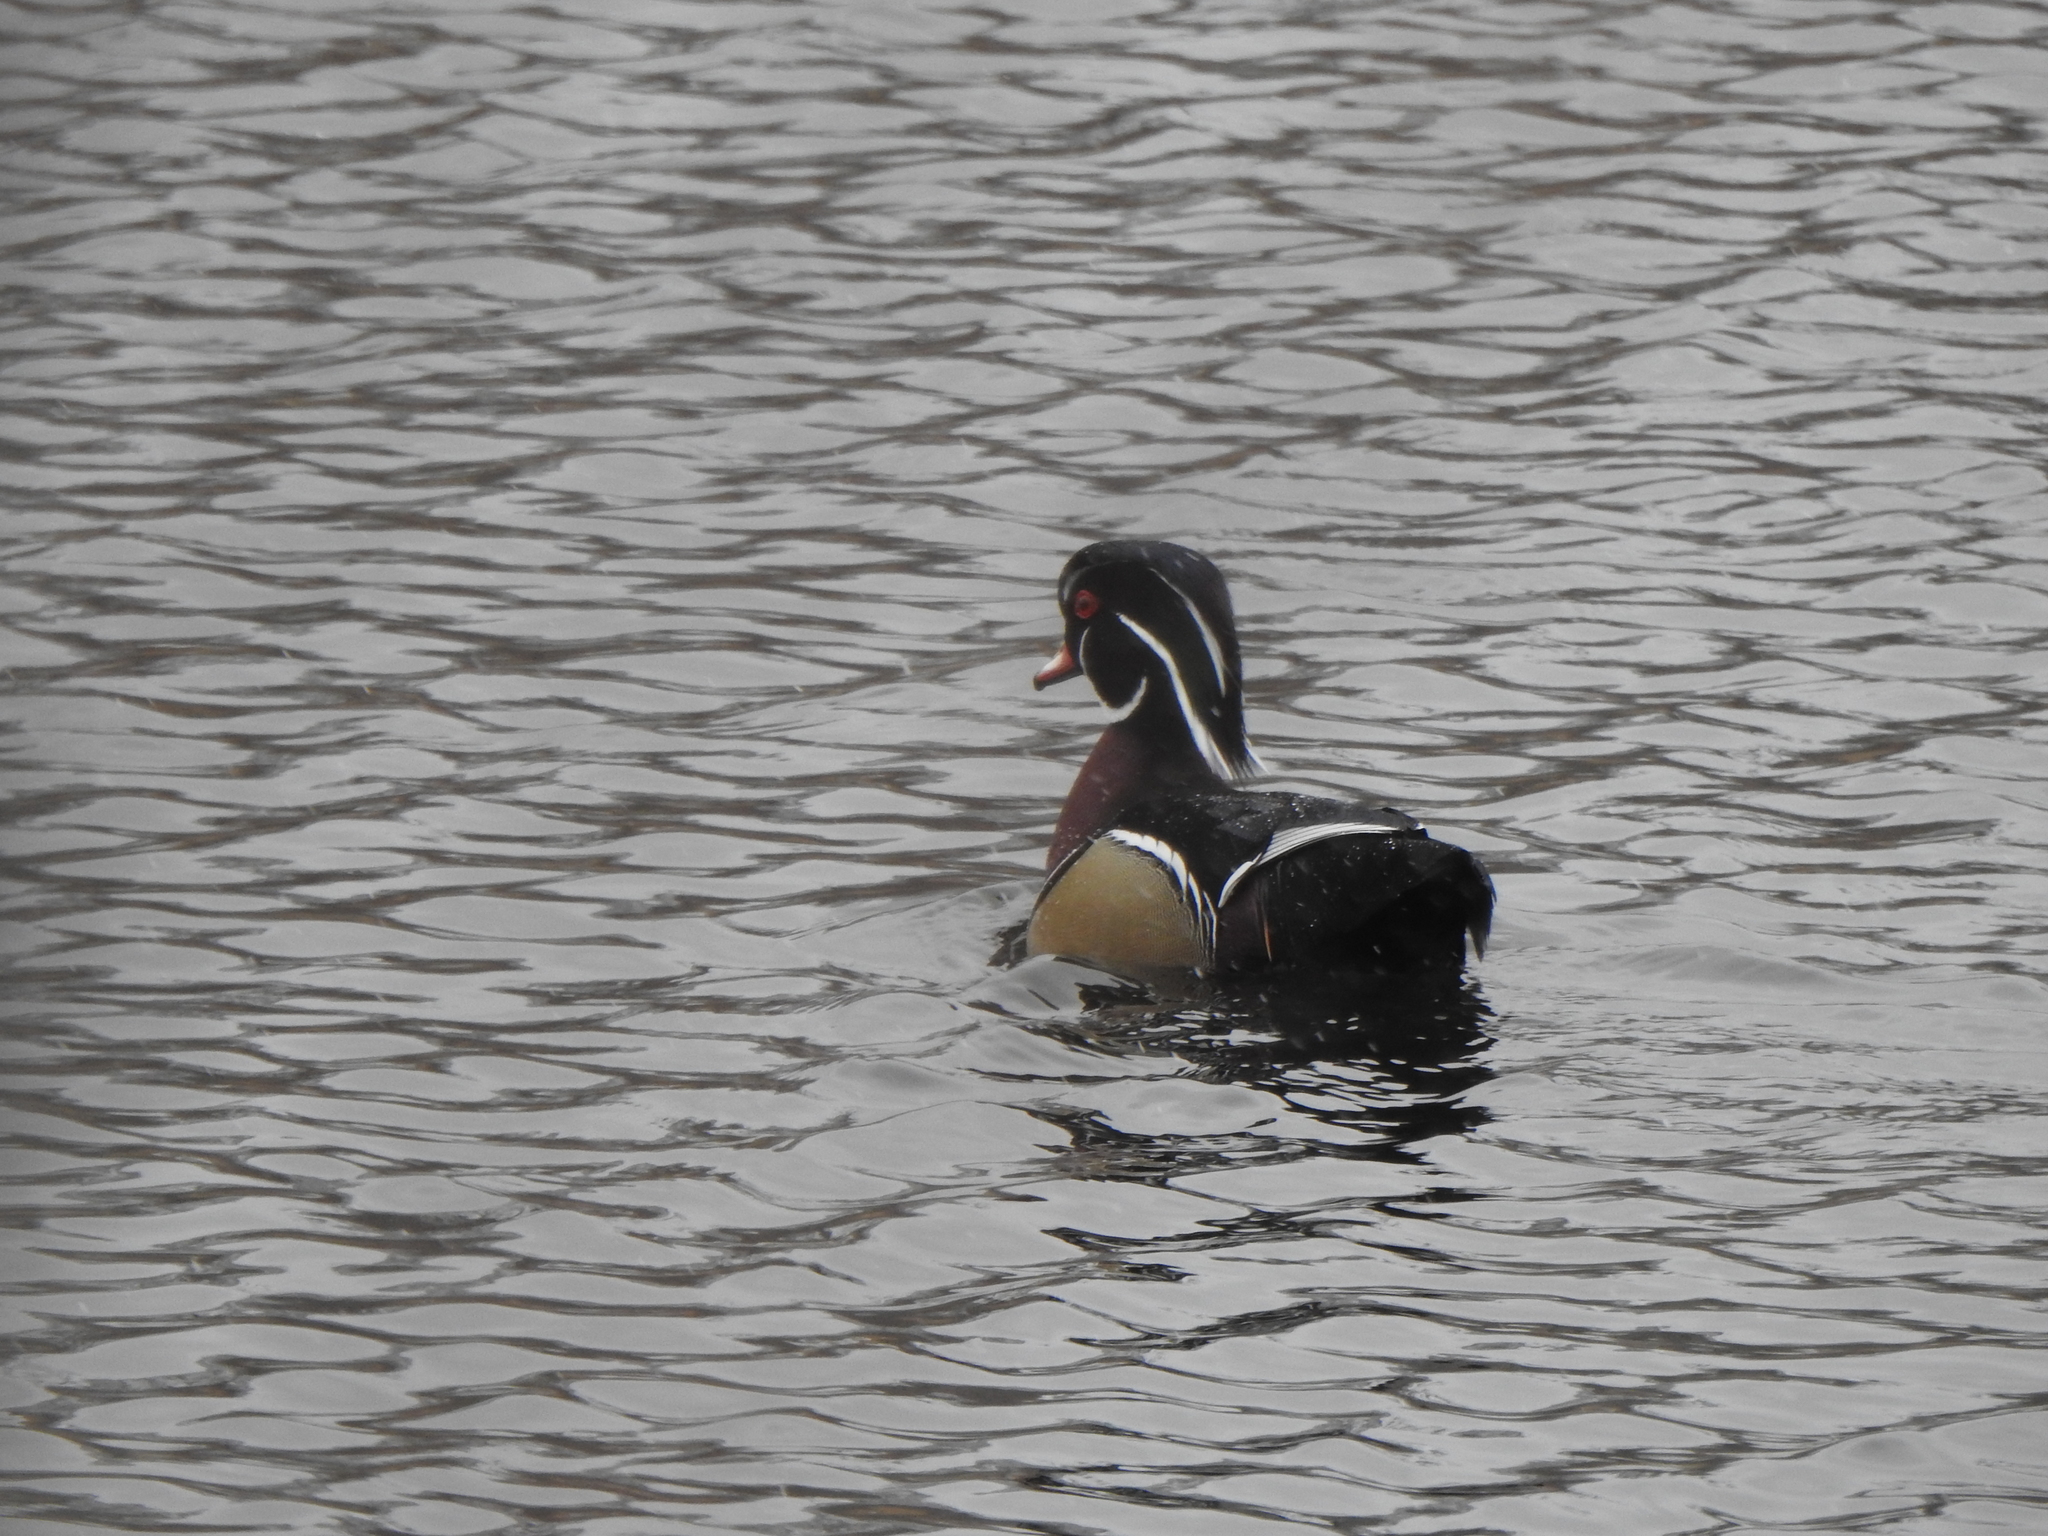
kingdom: Animalia
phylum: Chordata
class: Aves
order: Anseriformes
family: Anatidae
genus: Aix
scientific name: Aix sponsa
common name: Wood duck
